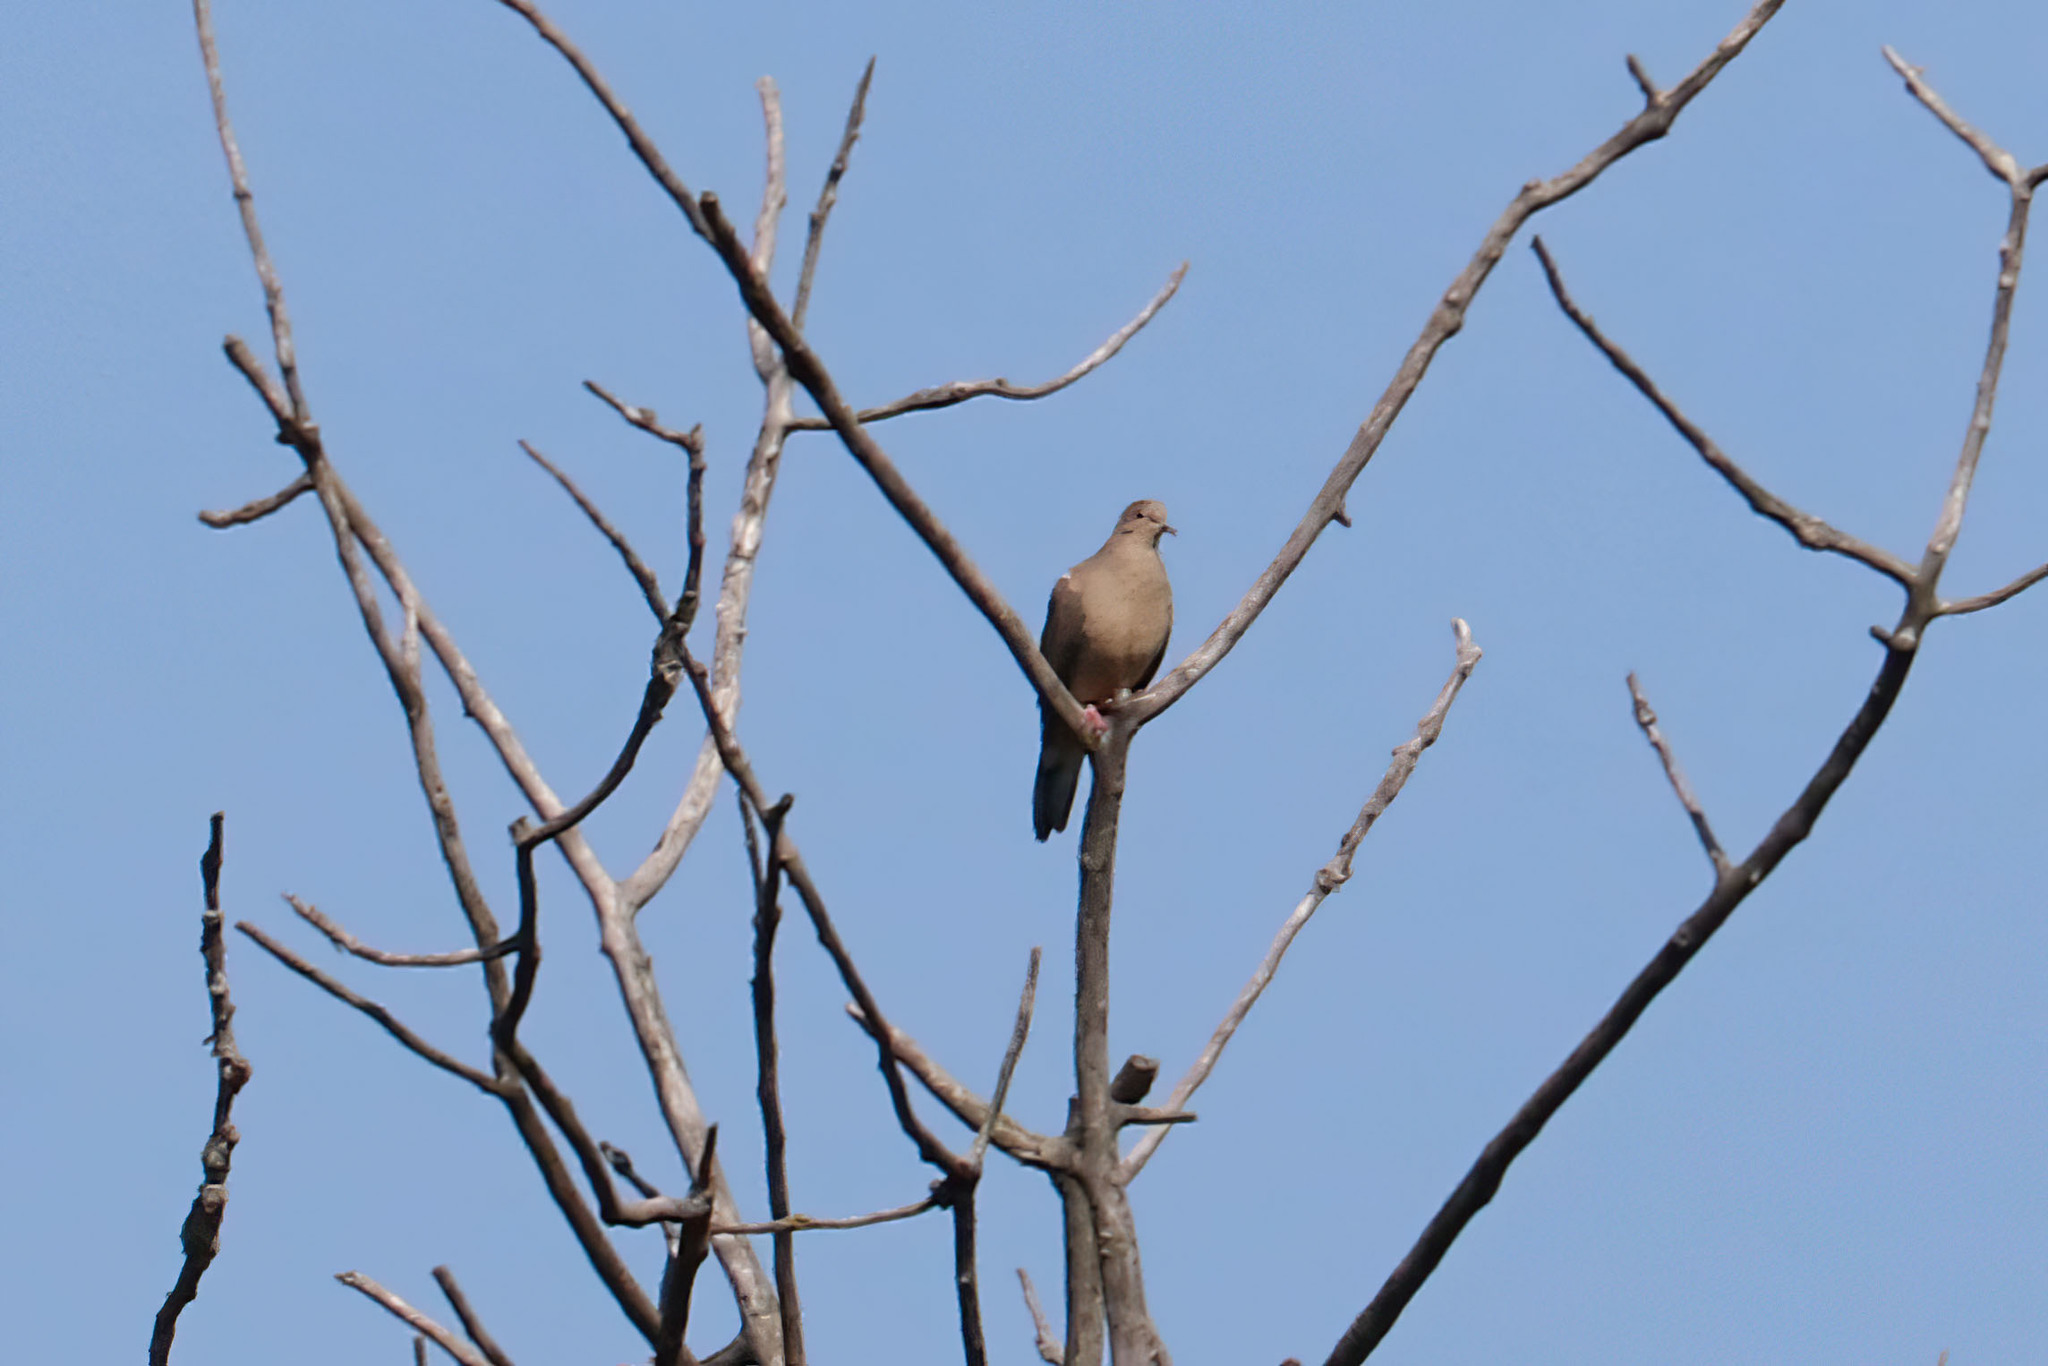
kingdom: Animalia
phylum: Chordata
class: Aves
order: Columbiformes
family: Columbidae
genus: Zenaida
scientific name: Zenaida macroura
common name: Mourning dove
